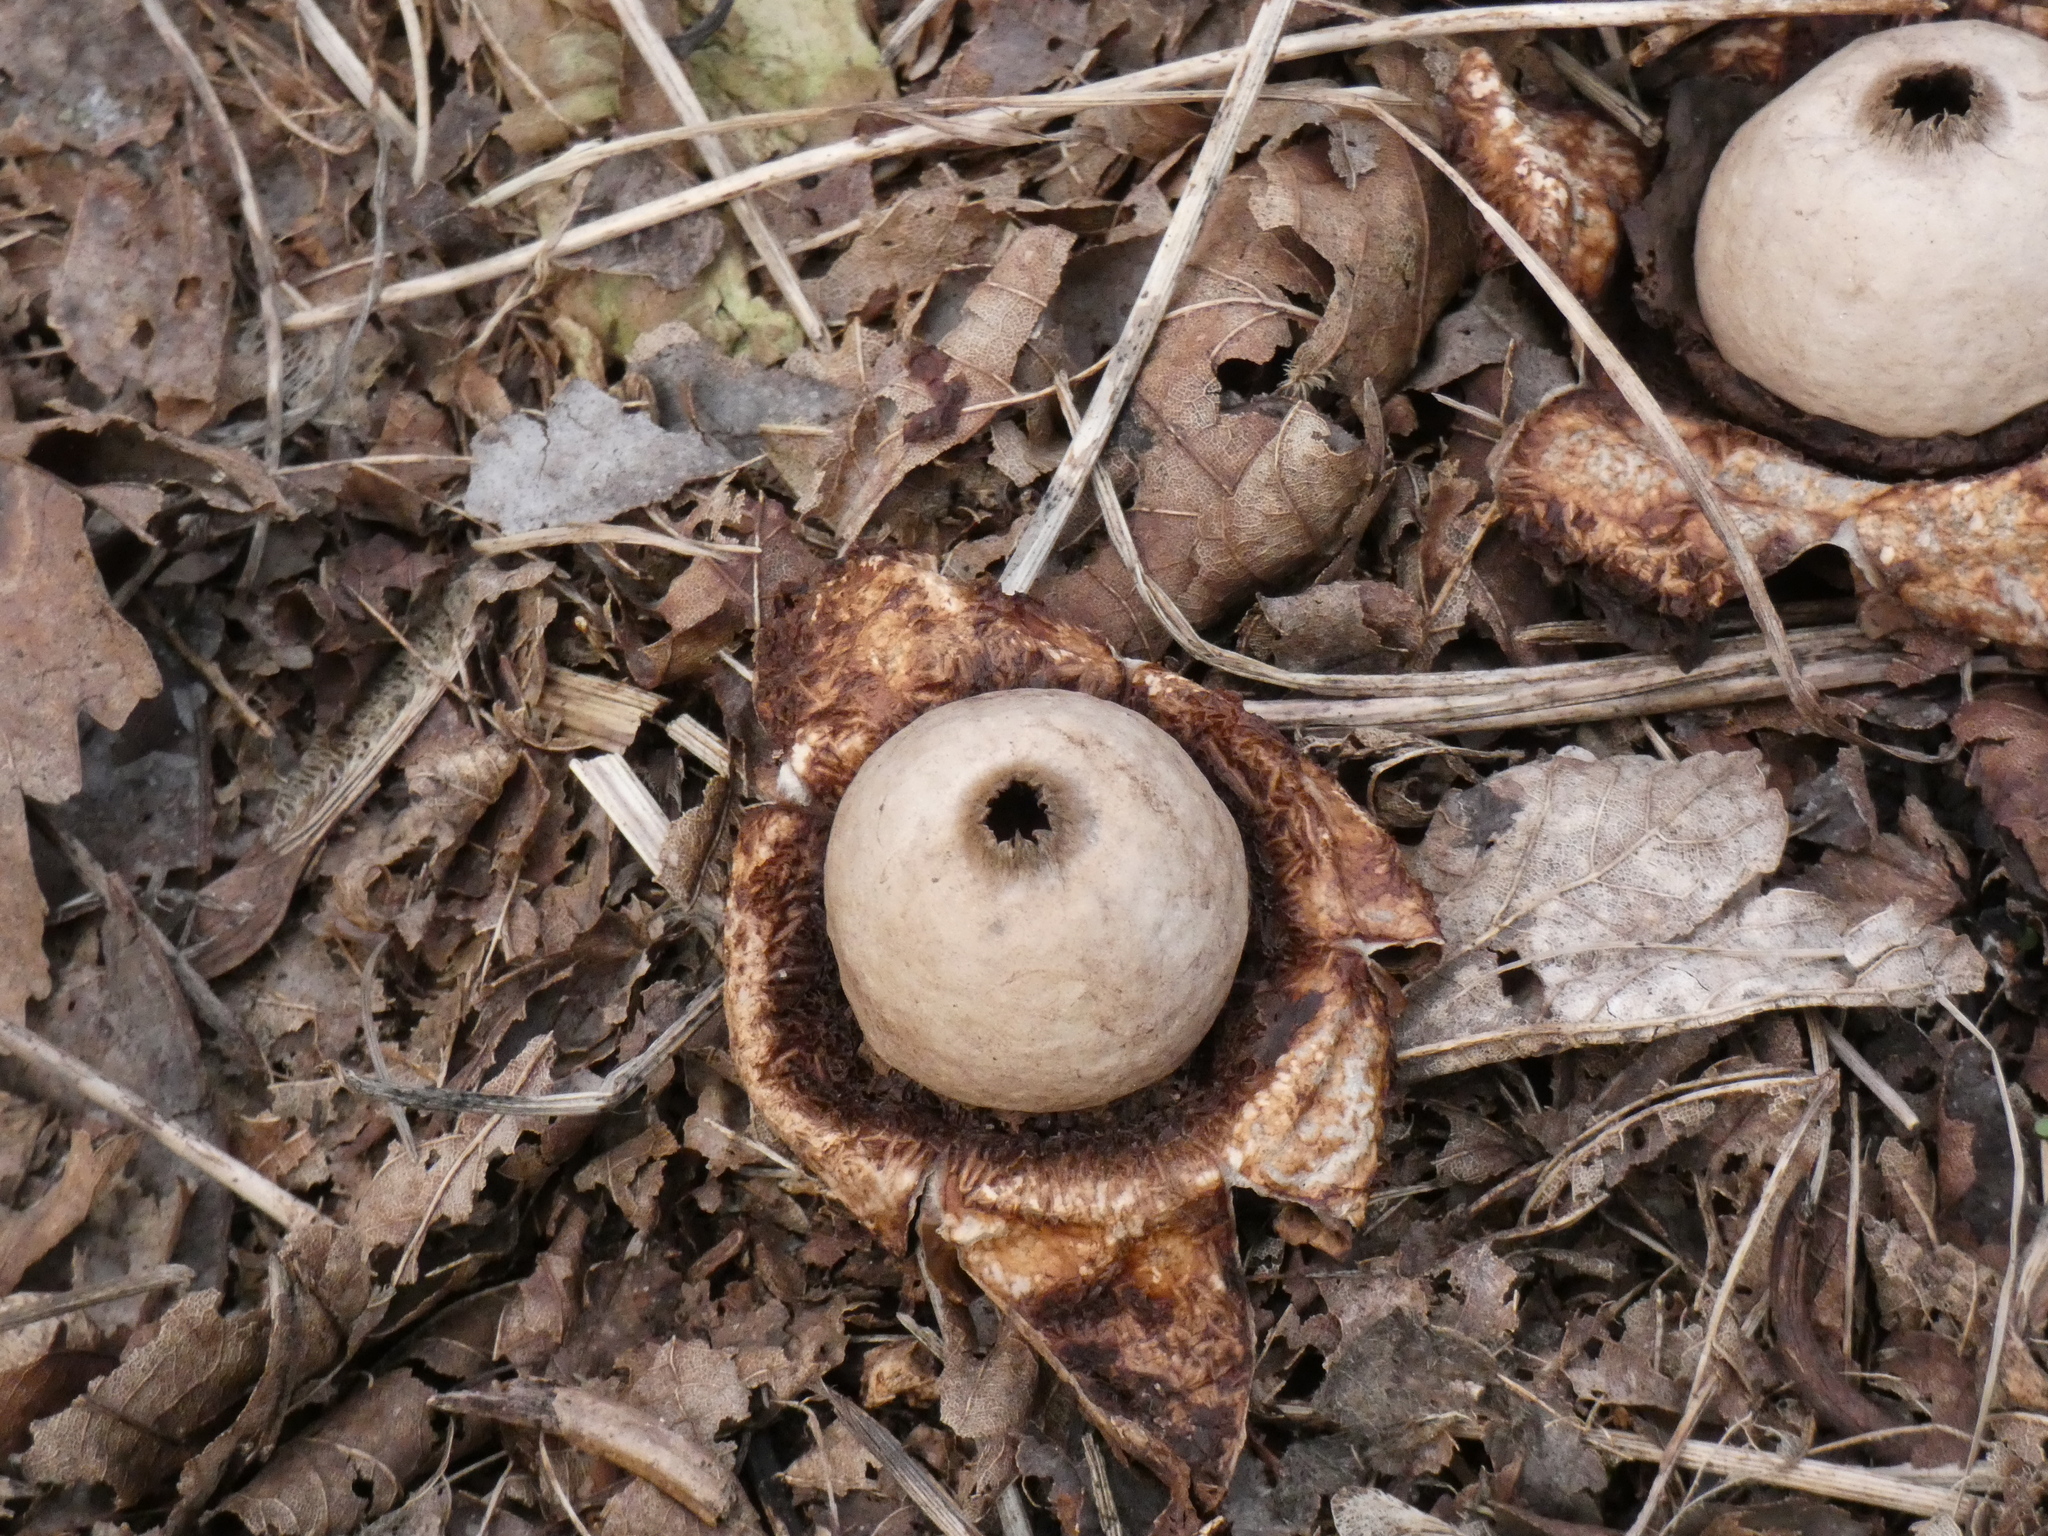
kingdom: Fungi
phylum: Basidiomycota
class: Agaricomycetes
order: Geastrales
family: Geastraceae
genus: Geastrum
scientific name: Geastrum triplex
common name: Collared earthstar
